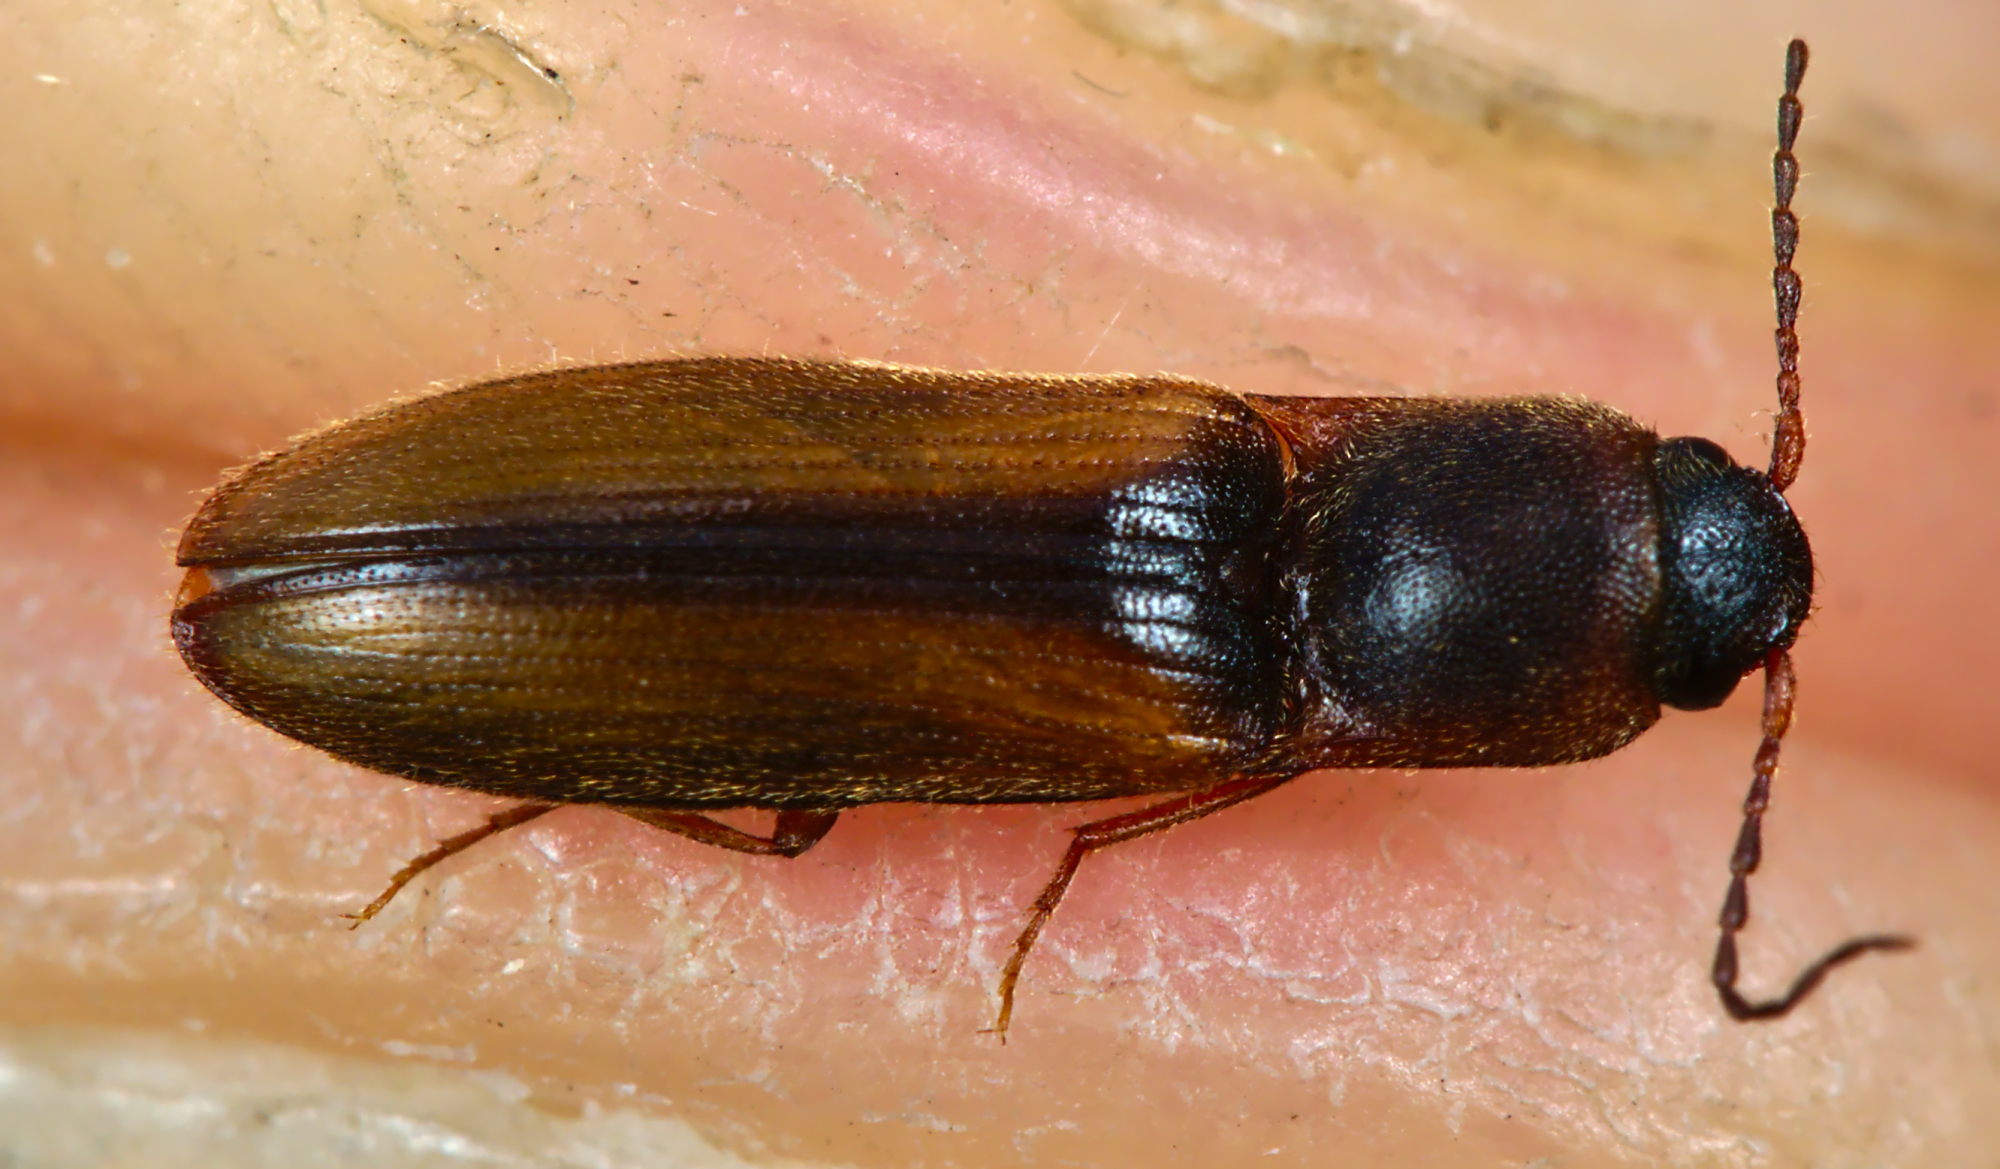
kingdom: Animalia
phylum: Arthropoda
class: Insecta
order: Coleoptera
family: Elateridae
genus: Dalopius
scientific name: Dalopius marginatus
